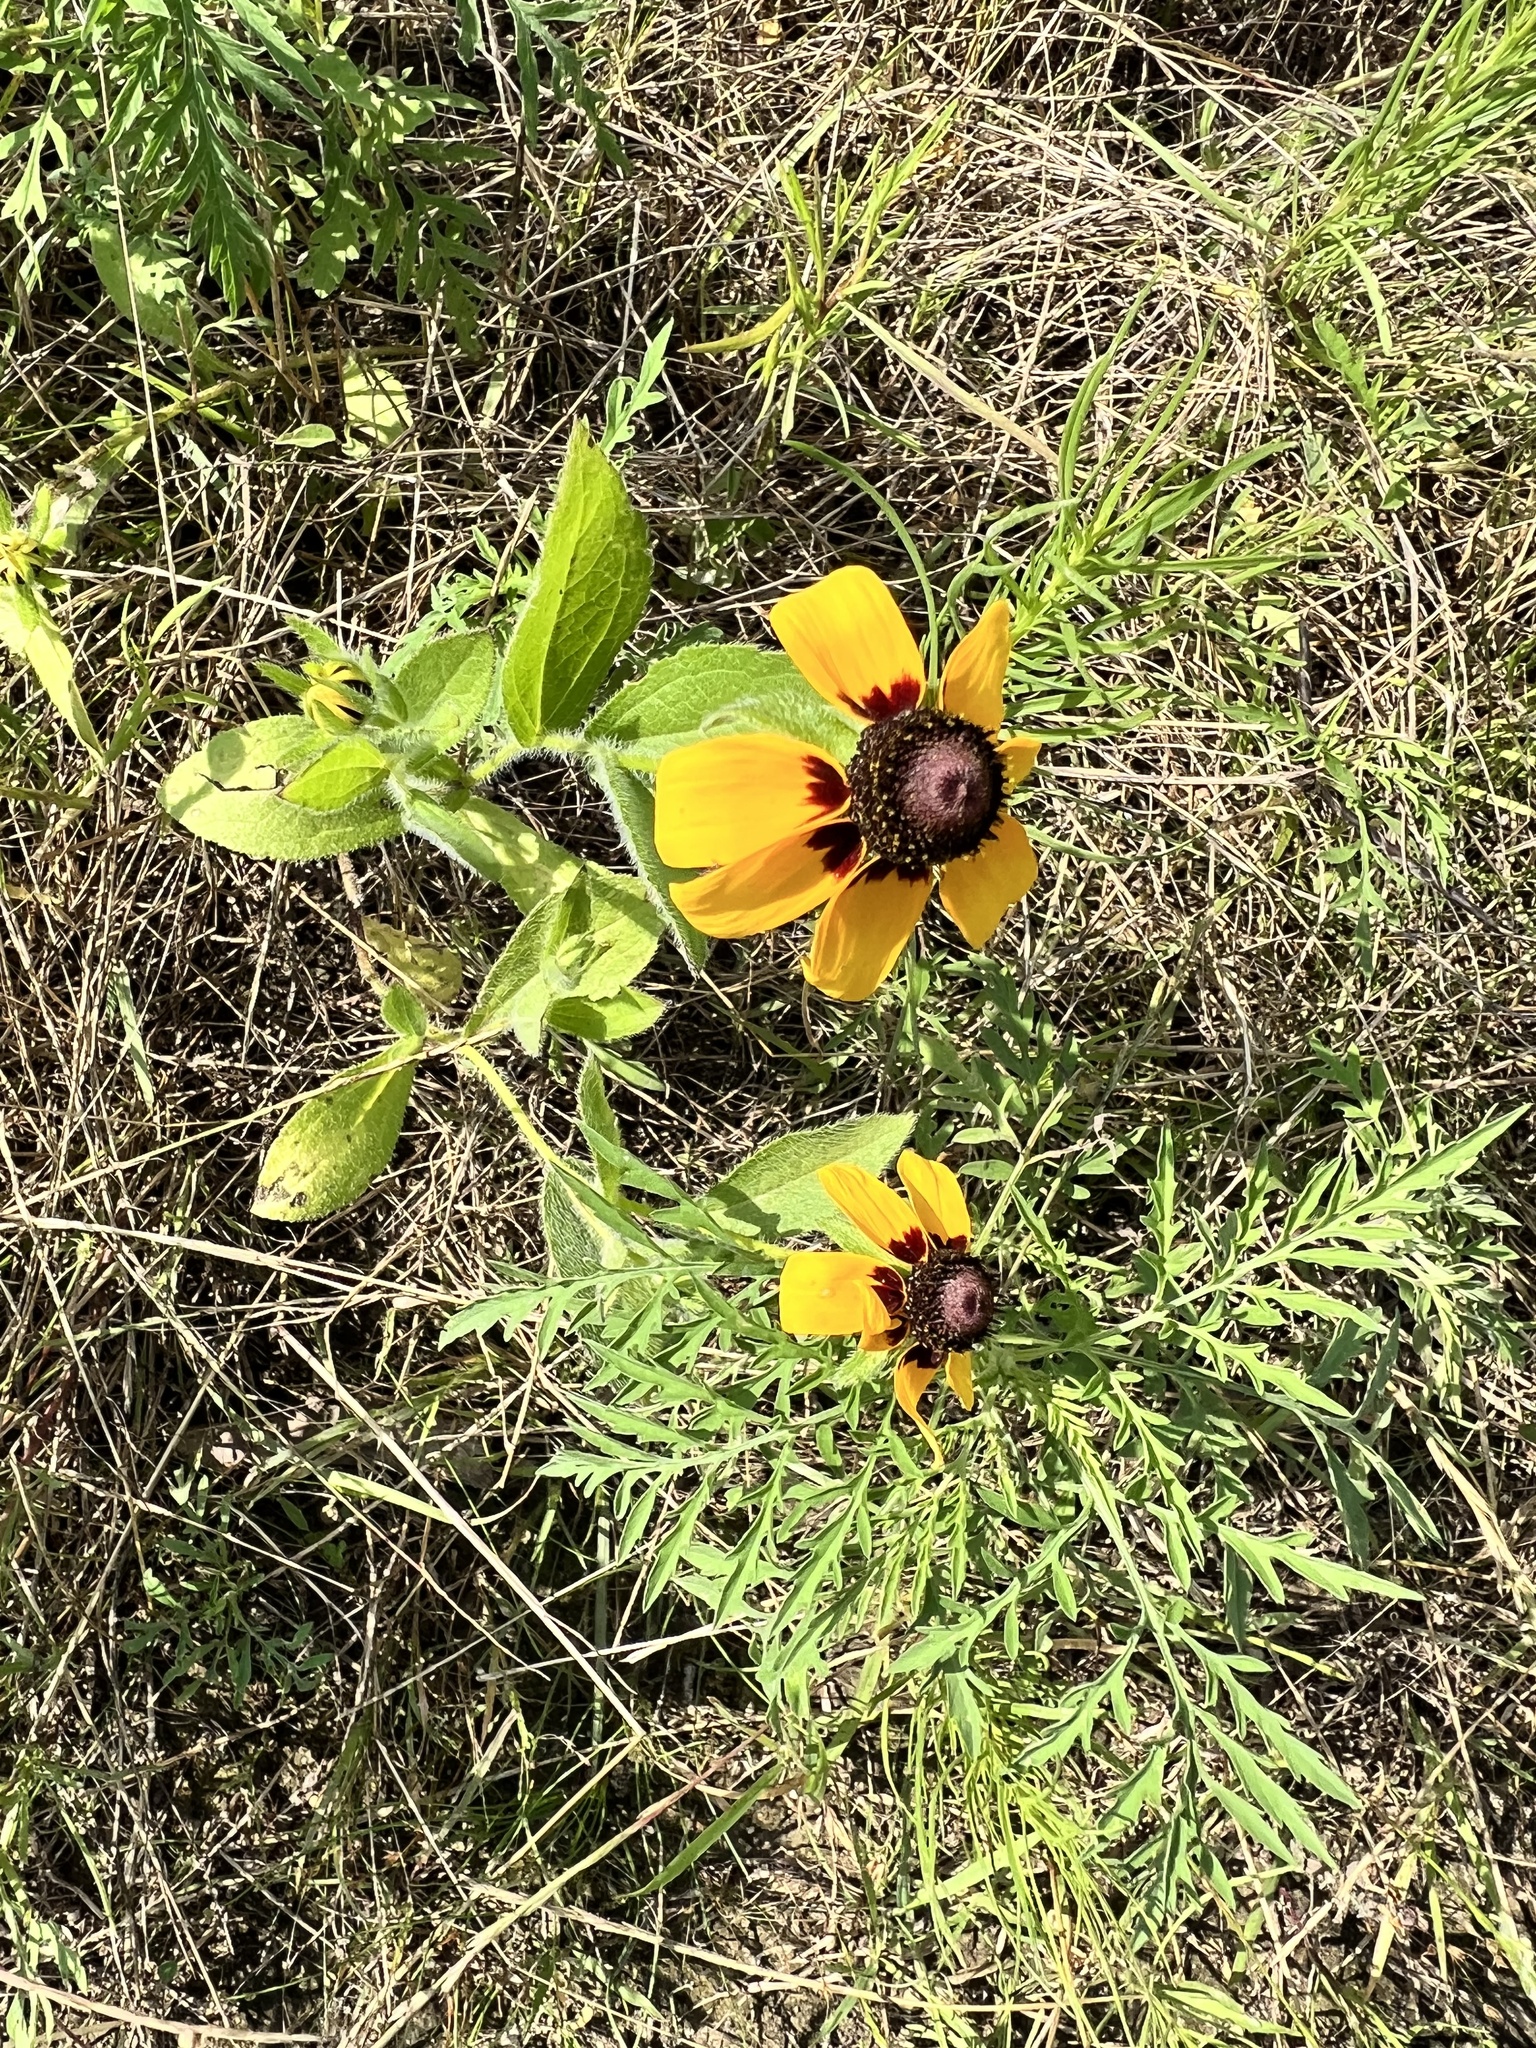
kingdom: Plantae
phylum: Tracheophyta
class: Magnoliopsida
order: Asterales
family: Asteraceae
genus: Rudbeckia
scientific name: Rudbeckia hirta
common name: Black-eyed-susan
